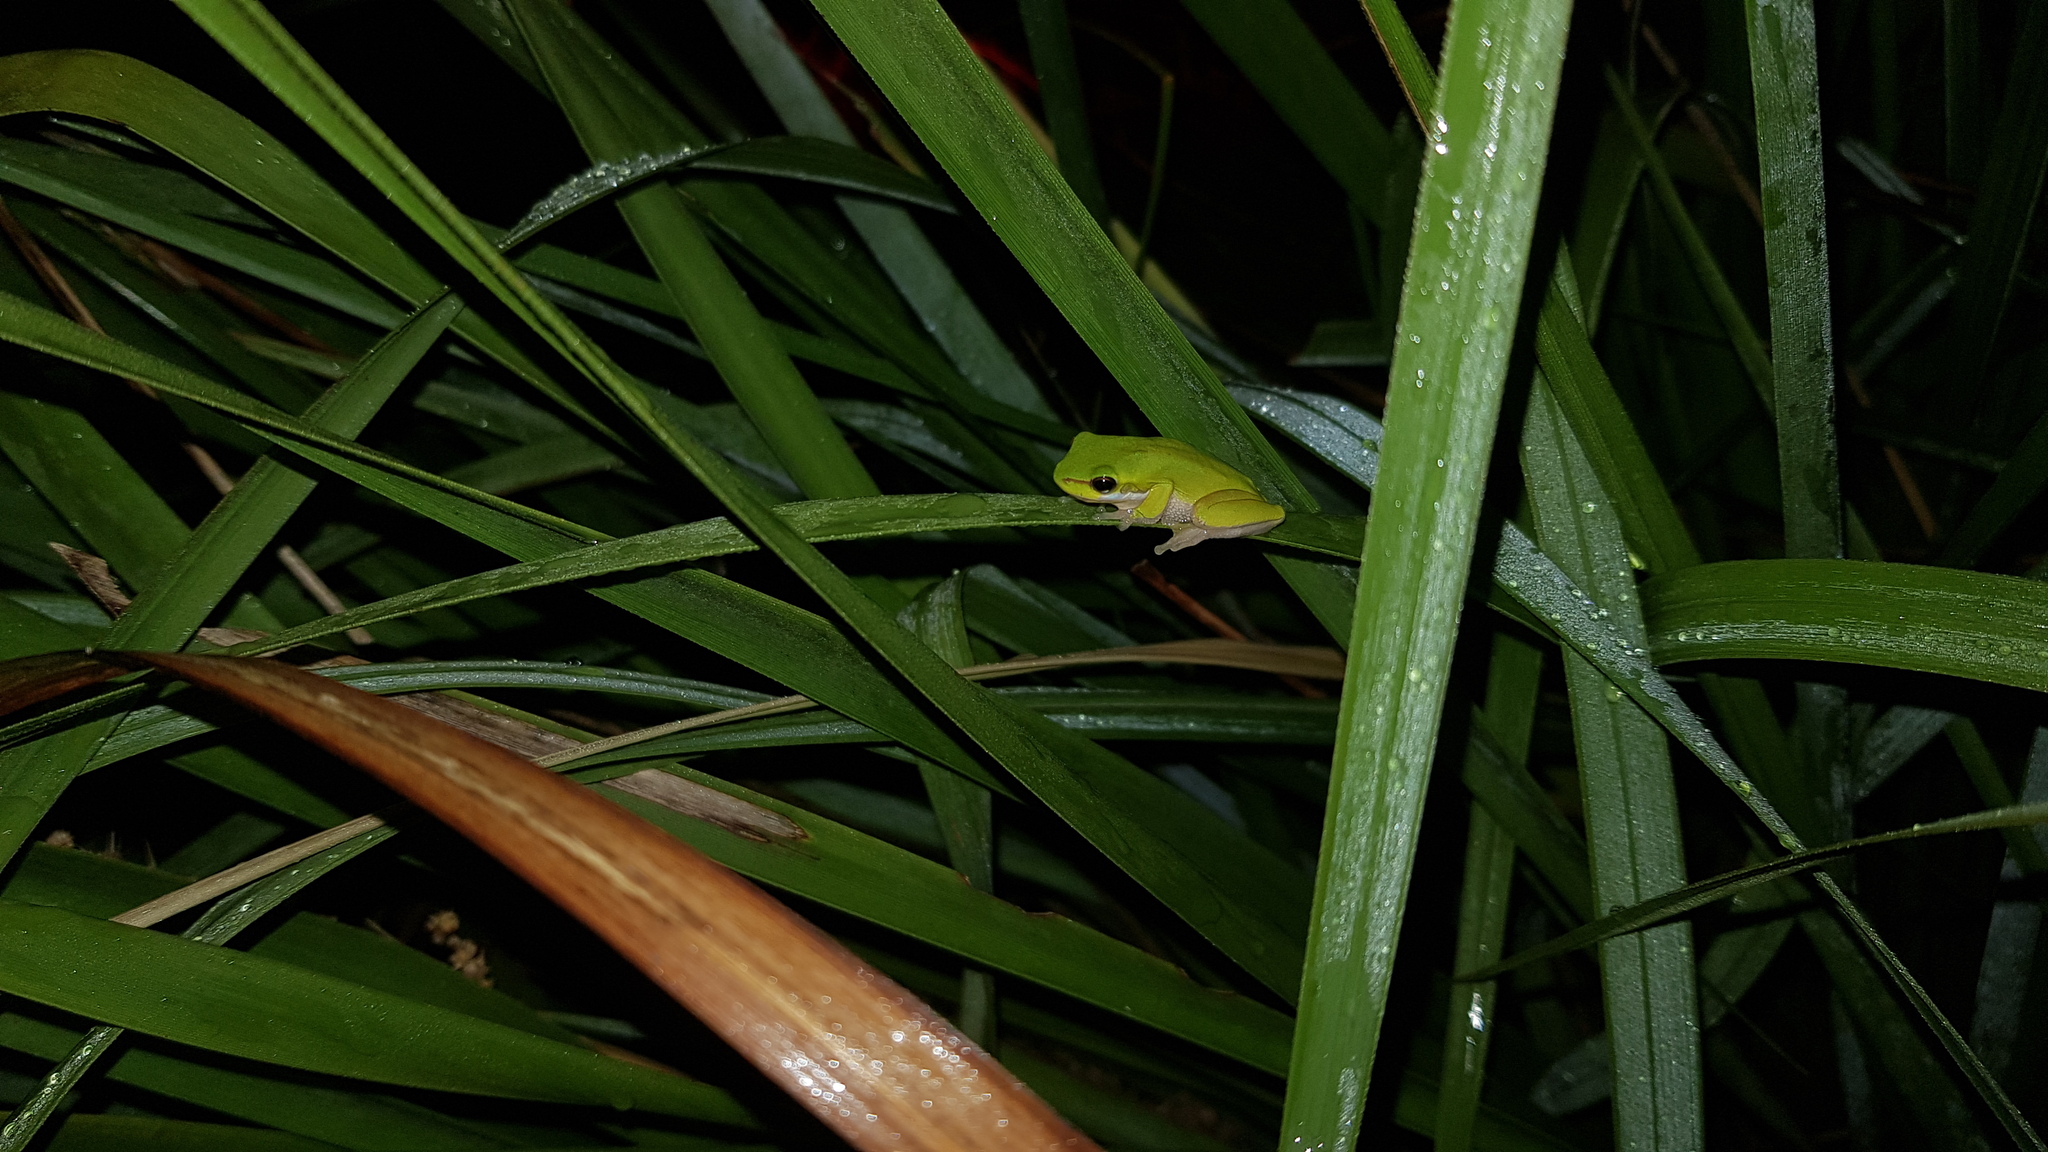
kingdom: Animalia
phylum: Chordata
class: Amphibia
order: Anura
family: Pelodryadidae
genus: Litoria
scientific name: Litoria fallax
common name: Eastern dwarf treefrog
